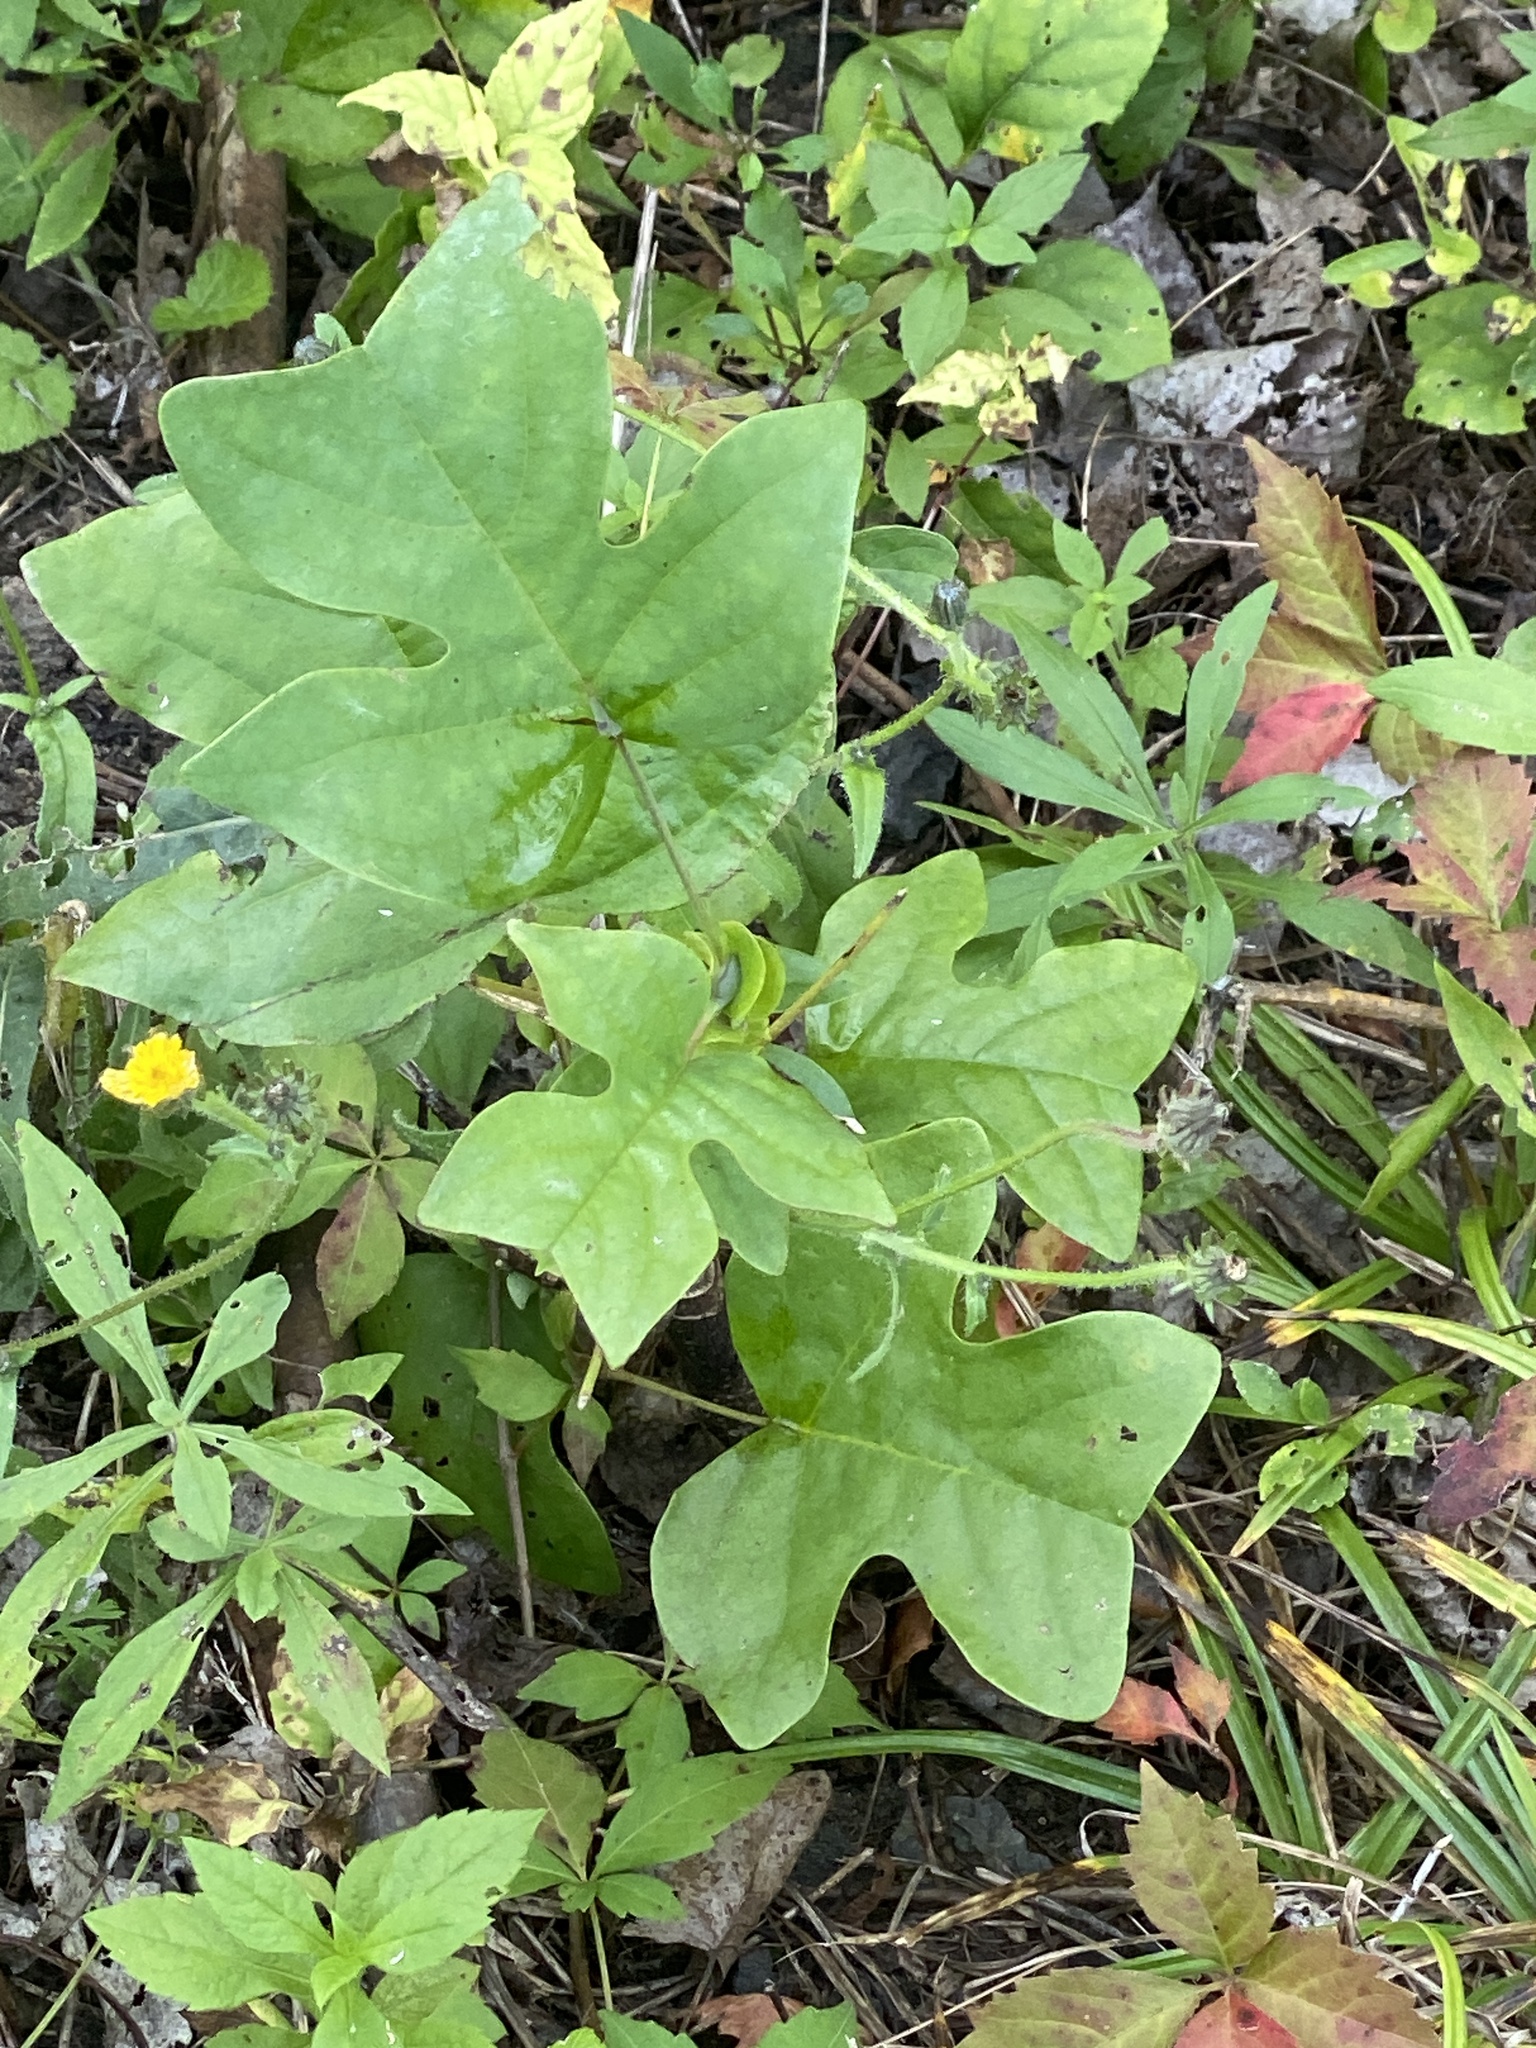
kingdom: Plantae
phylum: Tracheophyta
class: Magnoliopsida
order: Magnoliales
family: Magnoliaceae
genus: Liriodendron
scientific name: Liriodendron tulipifera
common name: Tulip tree
